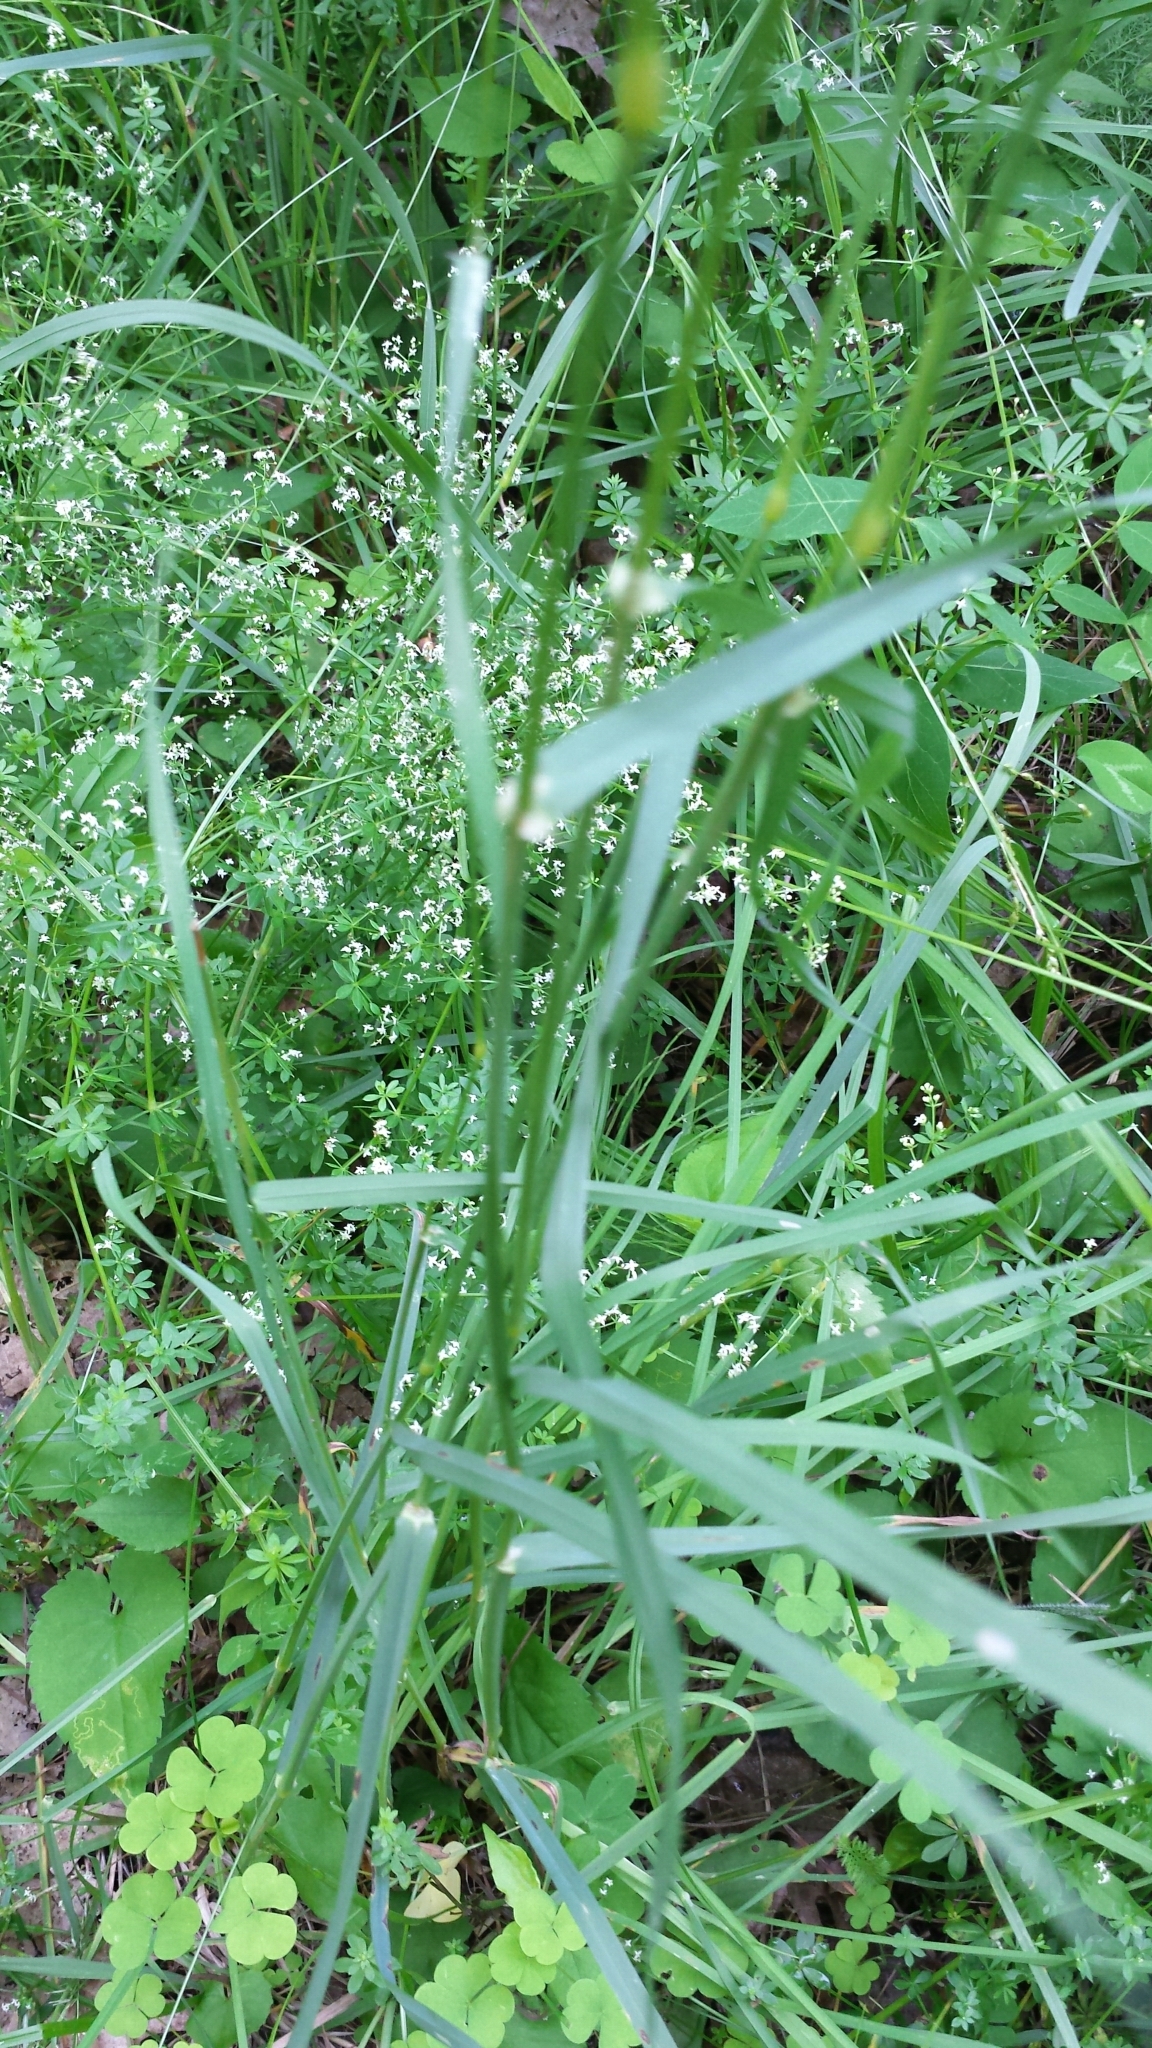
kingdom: Plantae
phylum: Tracheophyta
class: Liliopsida
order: Poales
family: Poaceae
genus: Dactylis
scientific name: Dactylis glomerata
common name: Orchardgrass
